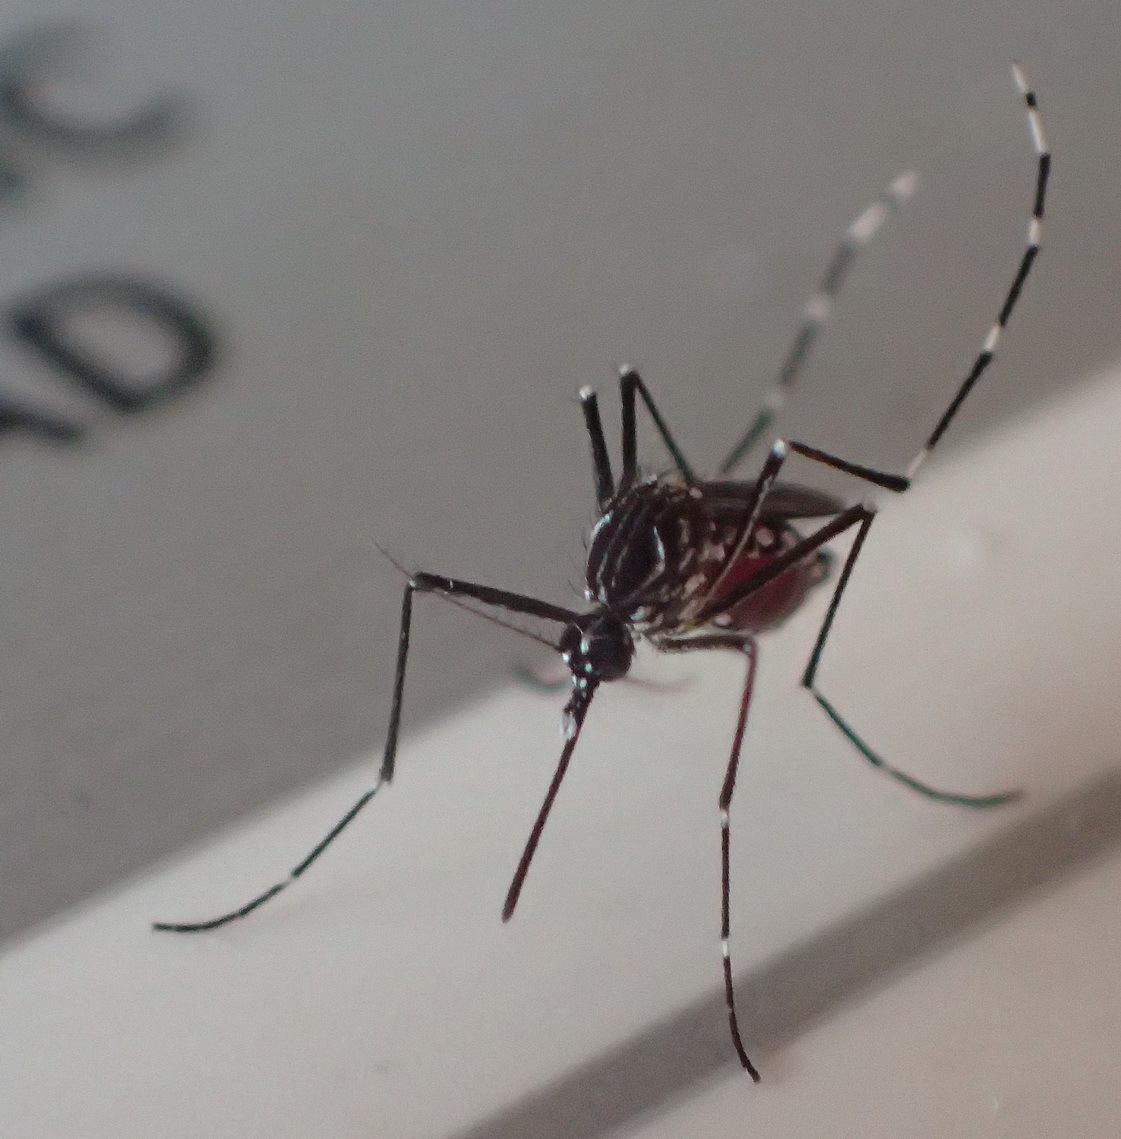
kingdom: Animalia
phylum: Arthropoda
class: Insecta
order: Diptera
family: Culicidae
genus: Aedes
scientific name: Aedes aegypti
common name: Yellow fever mosquito
